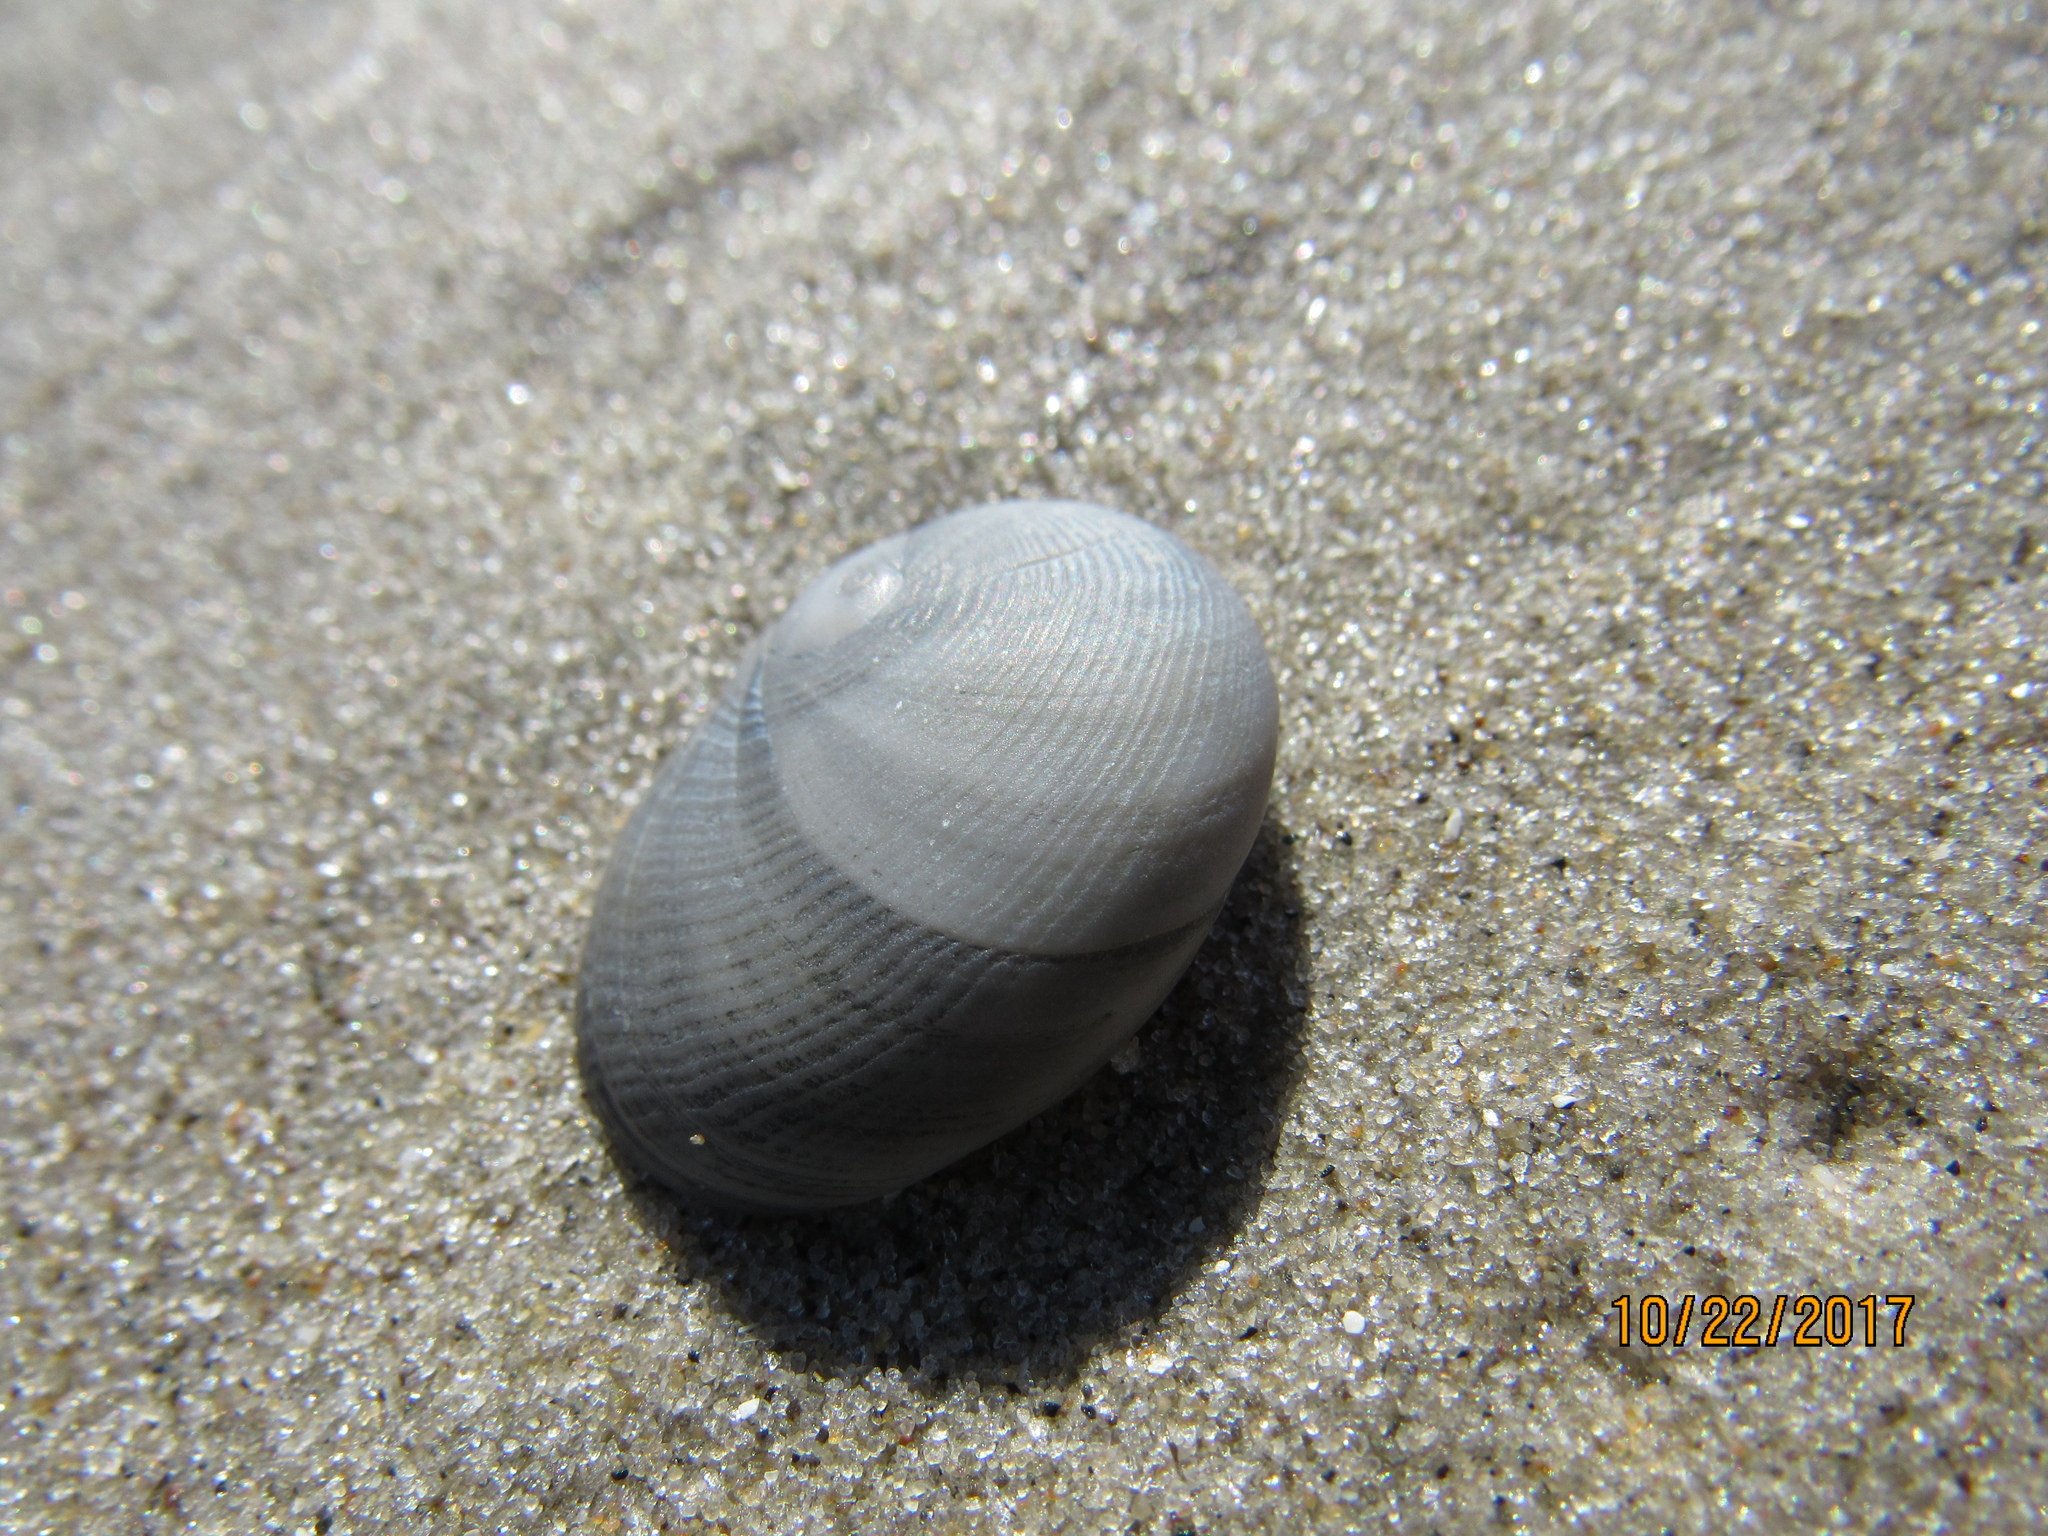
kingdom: Animalia
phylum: Mollusca
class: Gastropoda
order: Littorinimorpha
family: Naticidae
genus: Sinum
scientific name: Sinum perspectivum
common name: White baby ear
